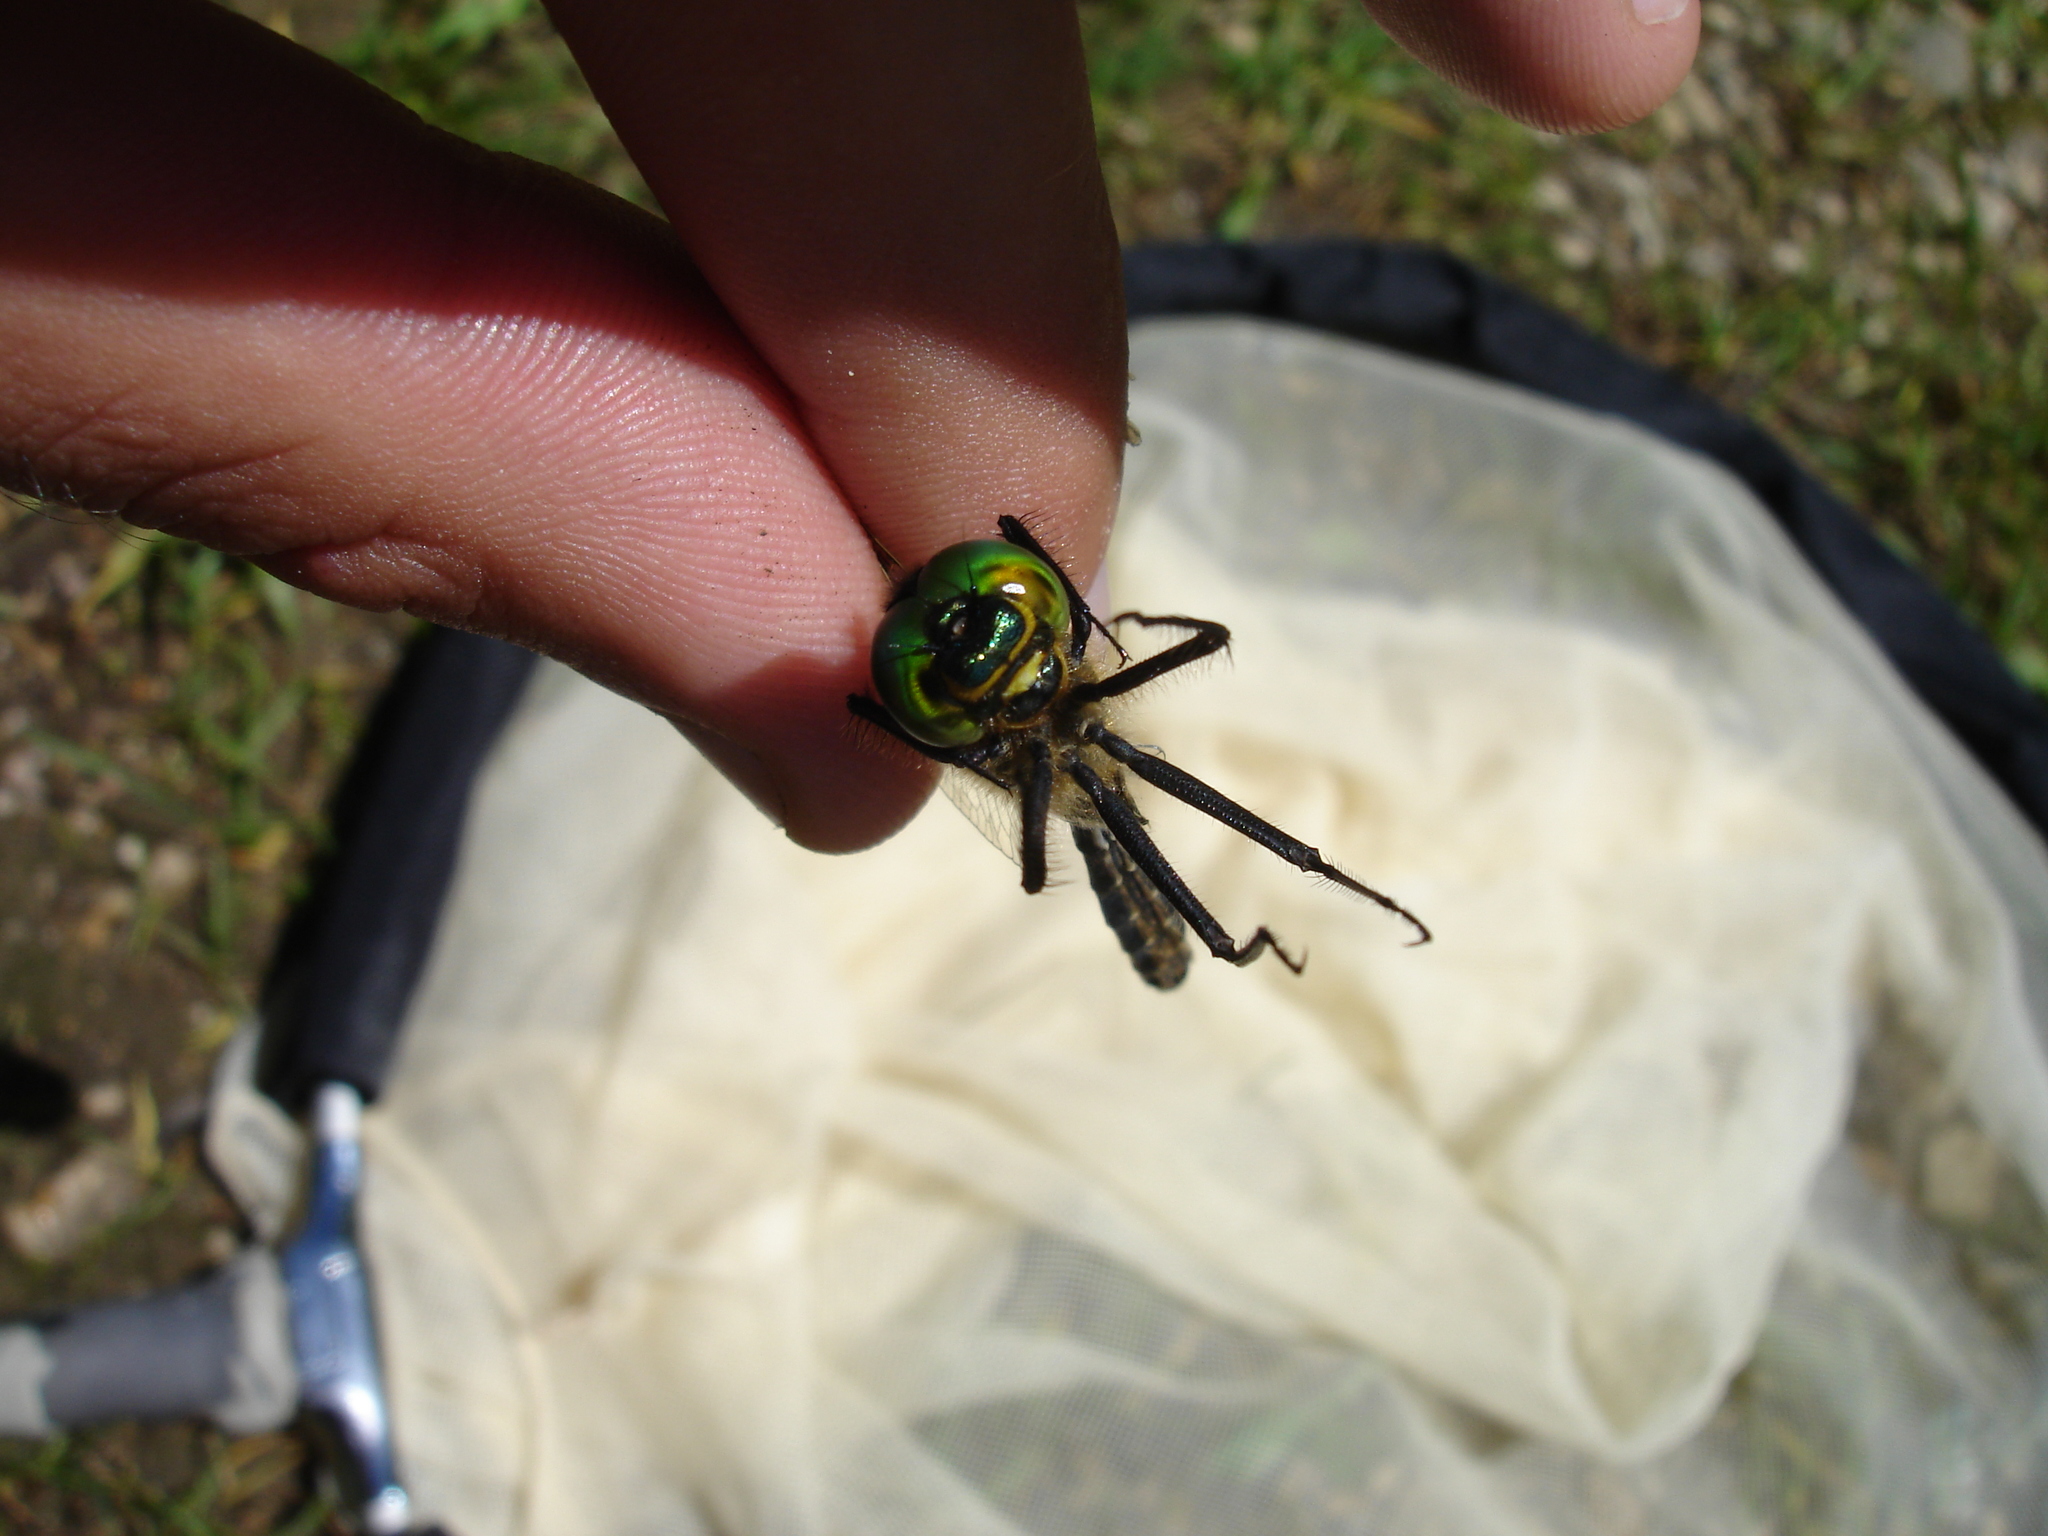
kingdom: Animalia
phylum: Arthropoda
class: Insecta
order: Odonata
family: Corduliidae
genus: Somatochlora
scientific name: Somatochlora metallica
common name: Brilliant emerald
